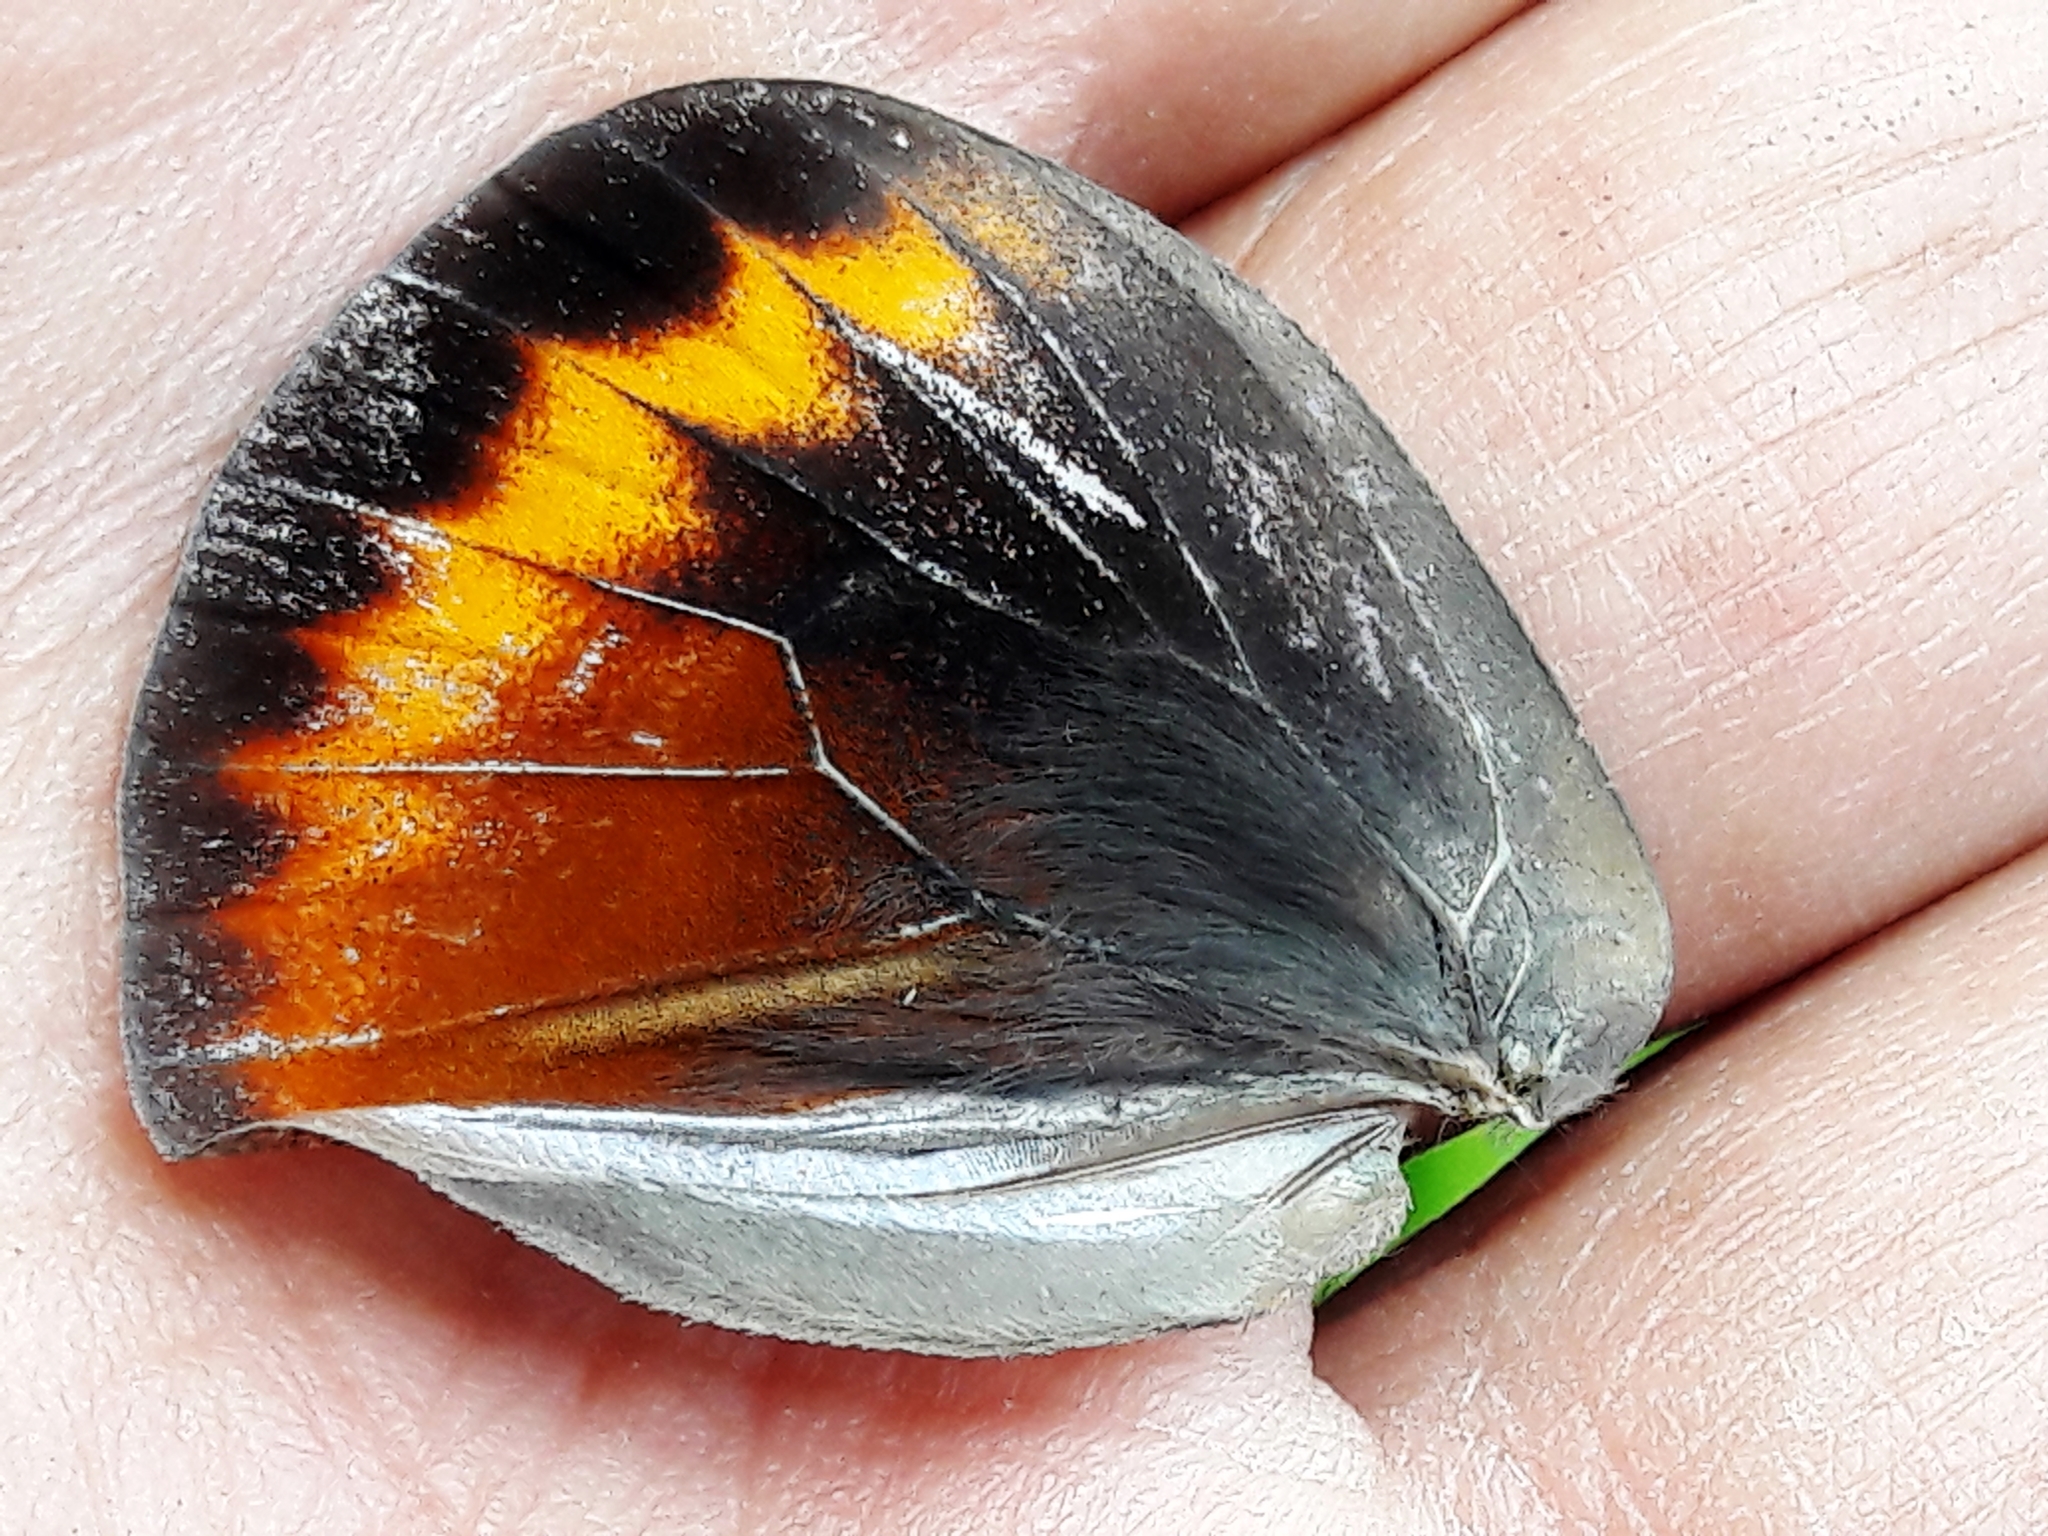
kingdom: Animalia
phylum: Arthropoda
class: Insecta
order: Lepidoptera
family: Nymphalidae
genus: Brassolis
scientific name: Brassolis sophorae
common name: Coconut caterpillar
